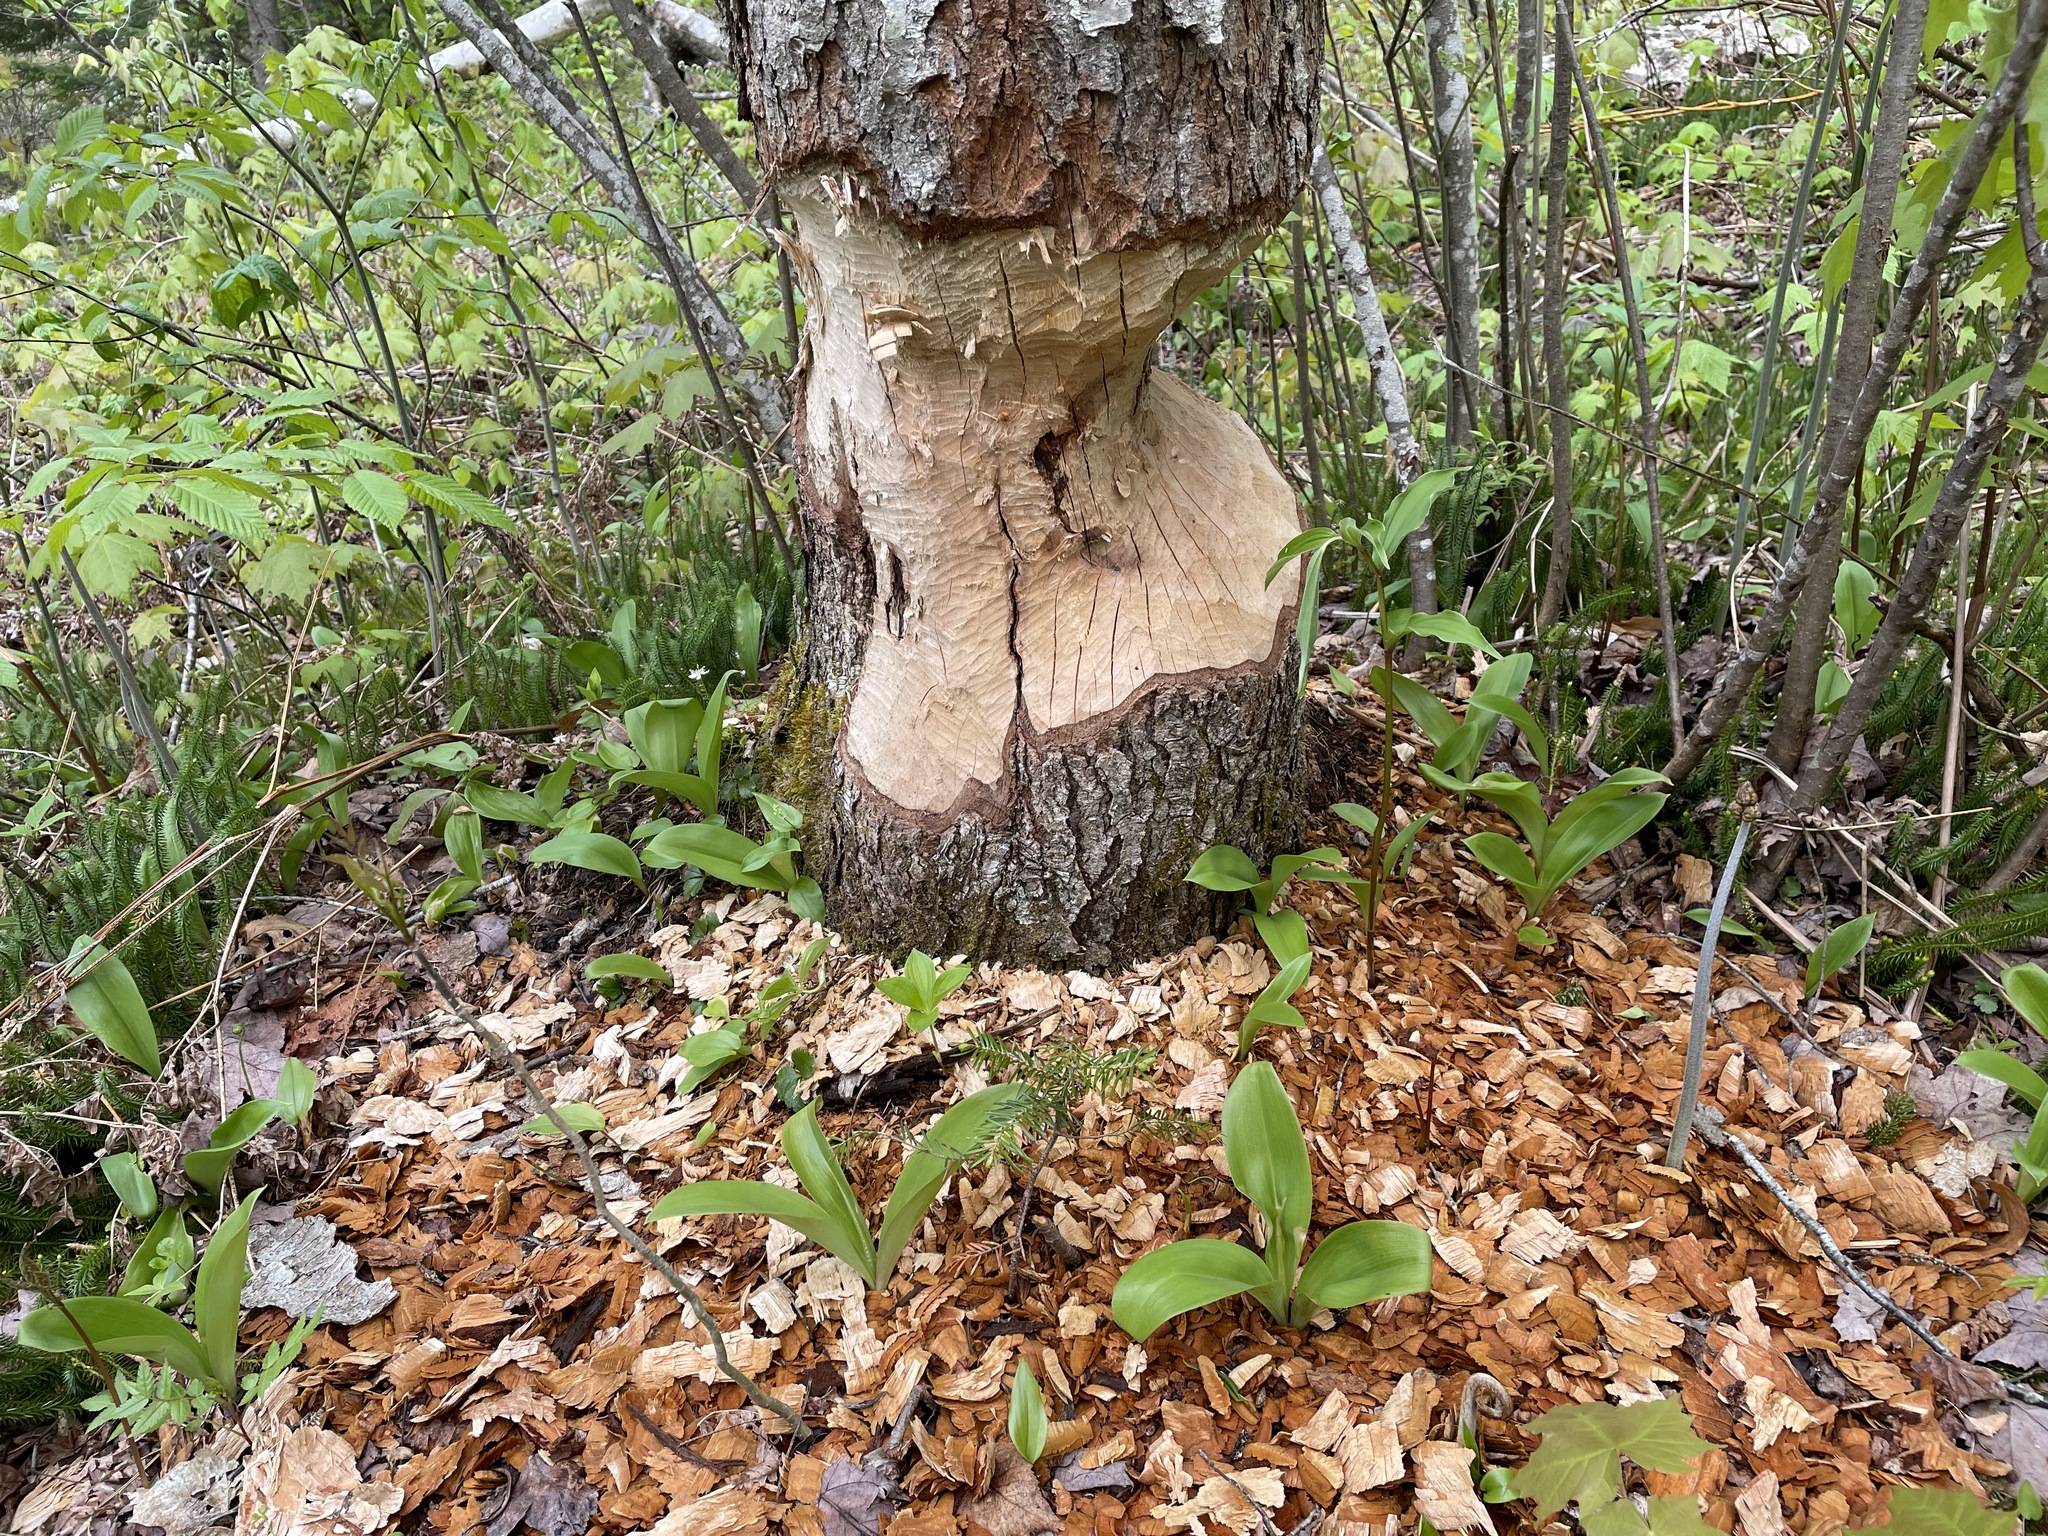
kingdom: Animalia
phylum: Chordata
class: Mammalia
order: Rodentia
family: Castoridae
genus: Castor
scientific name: Castor canadensis
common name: American beaver
